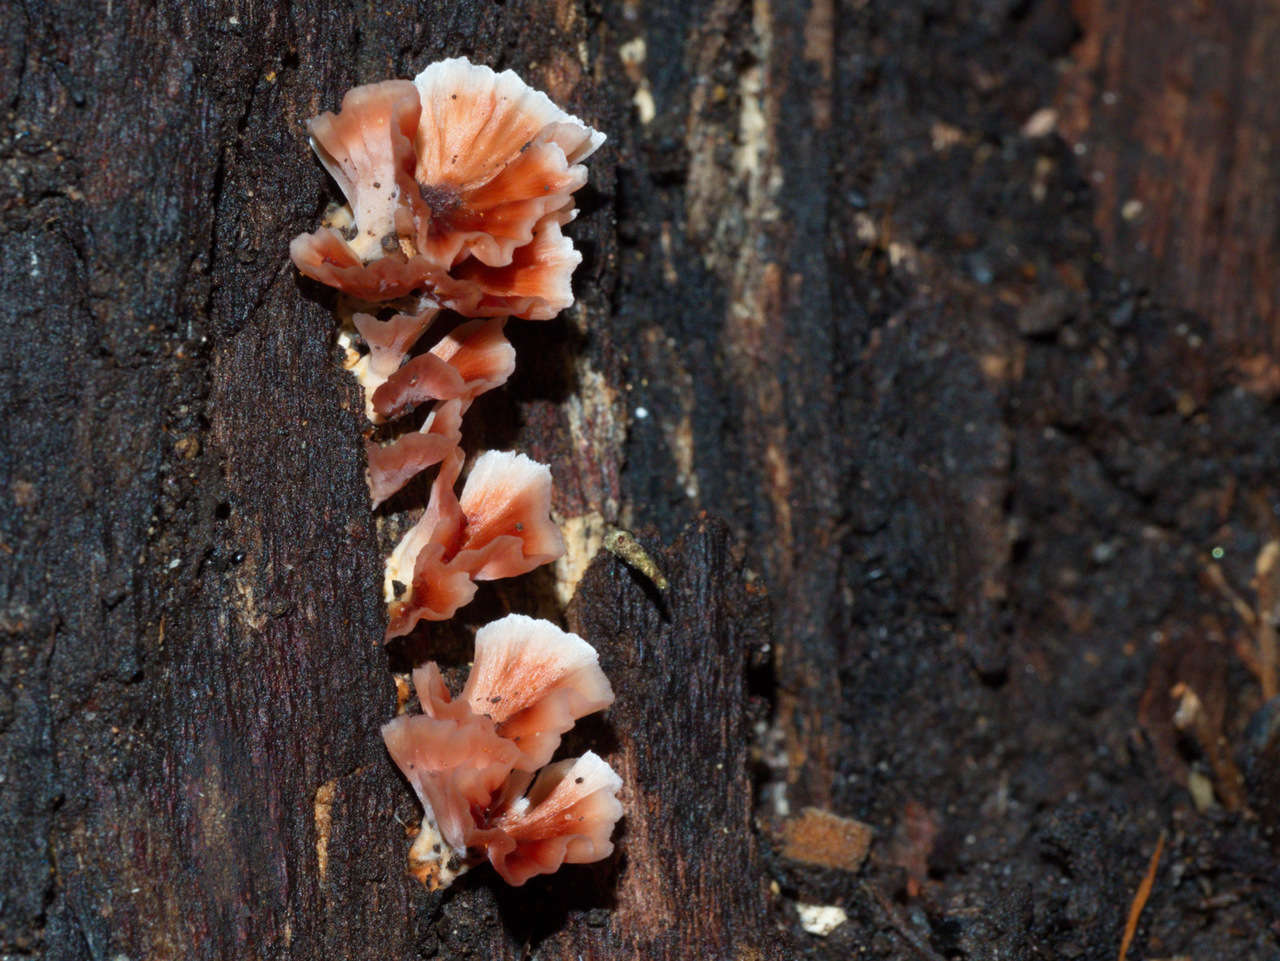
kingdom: Fungi
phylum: Basidiomycota
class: Agaricomycetes
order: Polyporales
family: Podoscyphaceae
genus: Podoscypha
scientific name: Podoscypha petalodes
